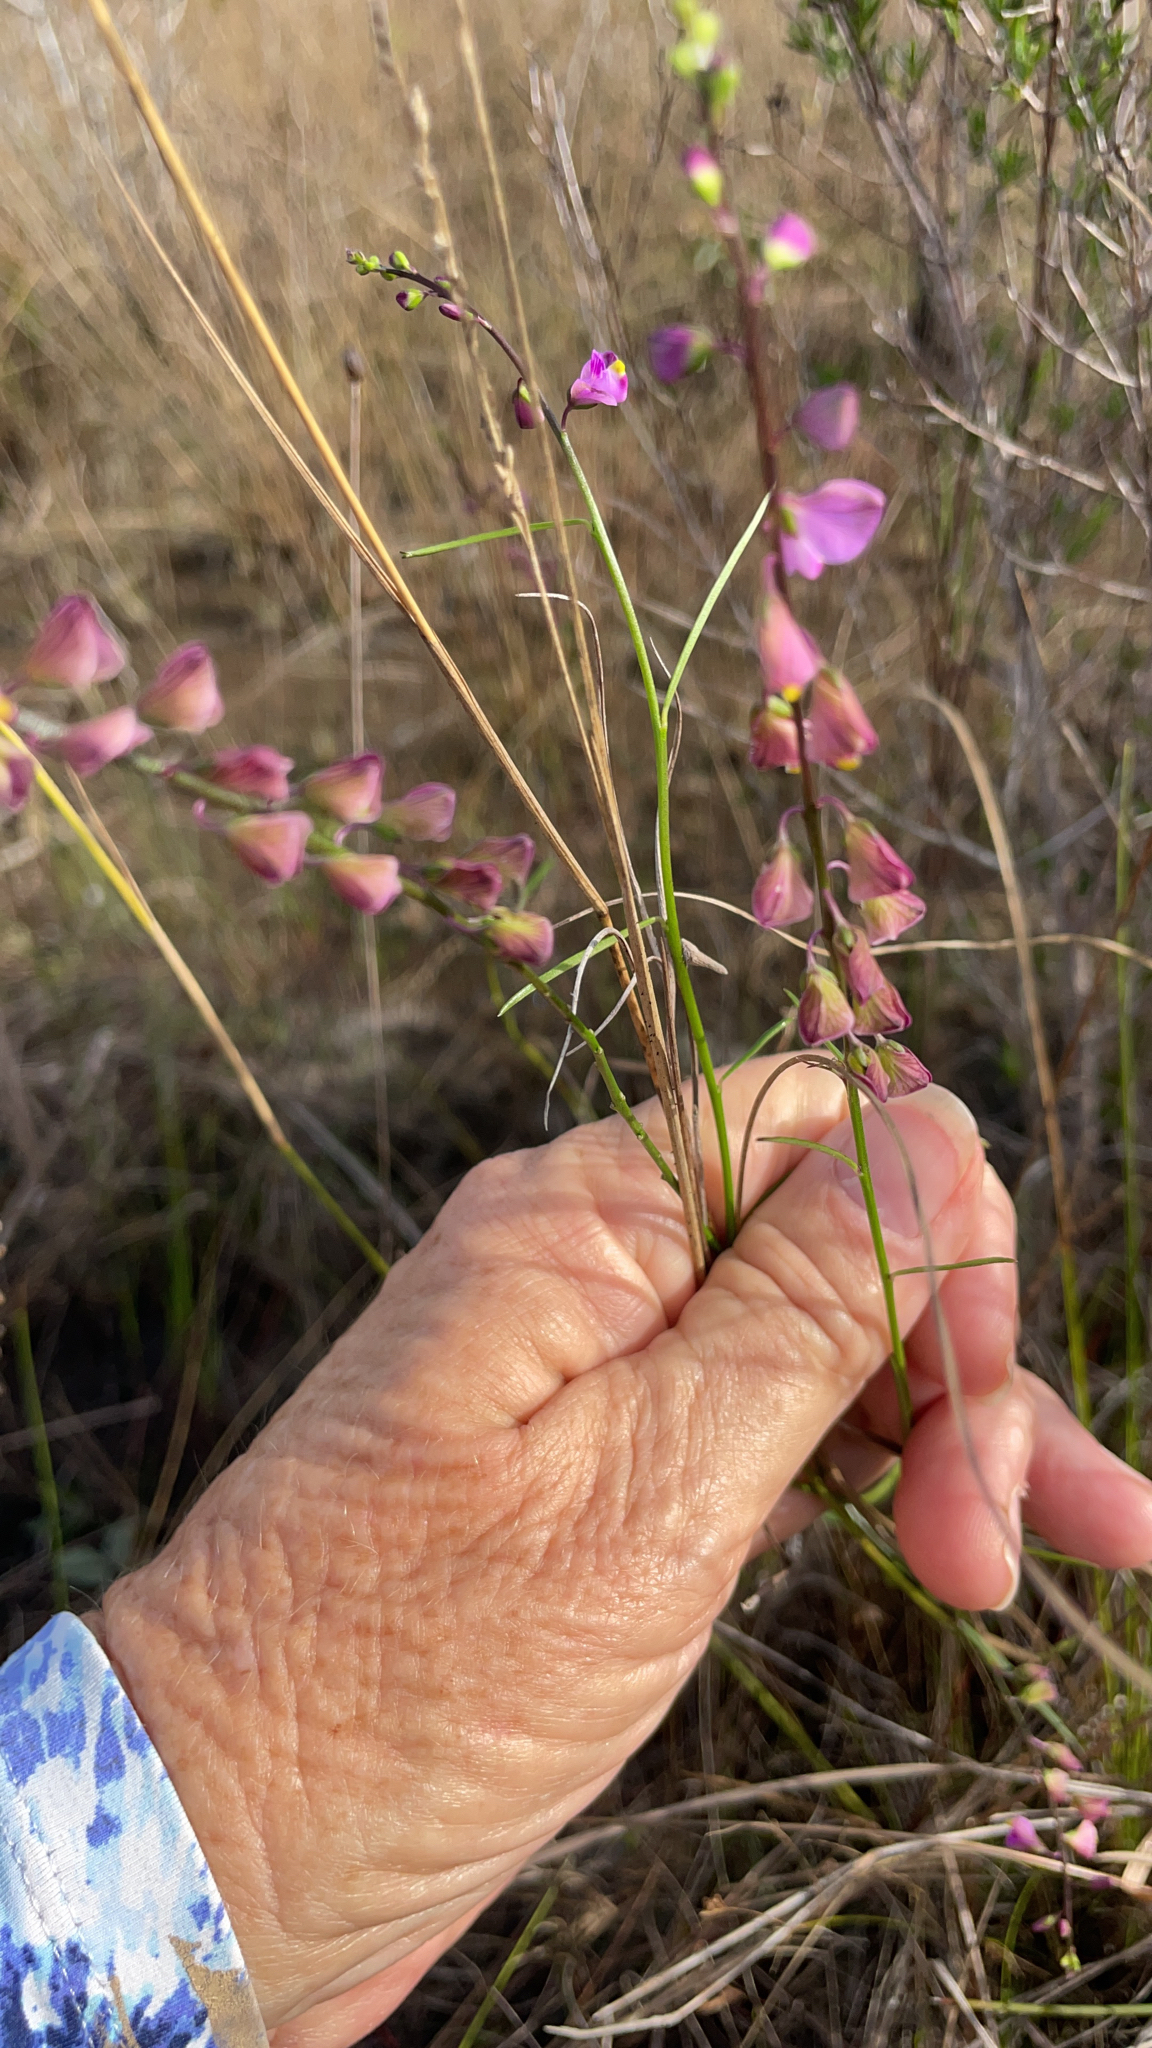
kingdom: Plantae
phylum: Tracheophyta
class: Magnoliopsida
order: Fabales
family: Polygalaceae
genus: Asemeia
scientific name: Asemeia grandiflora
